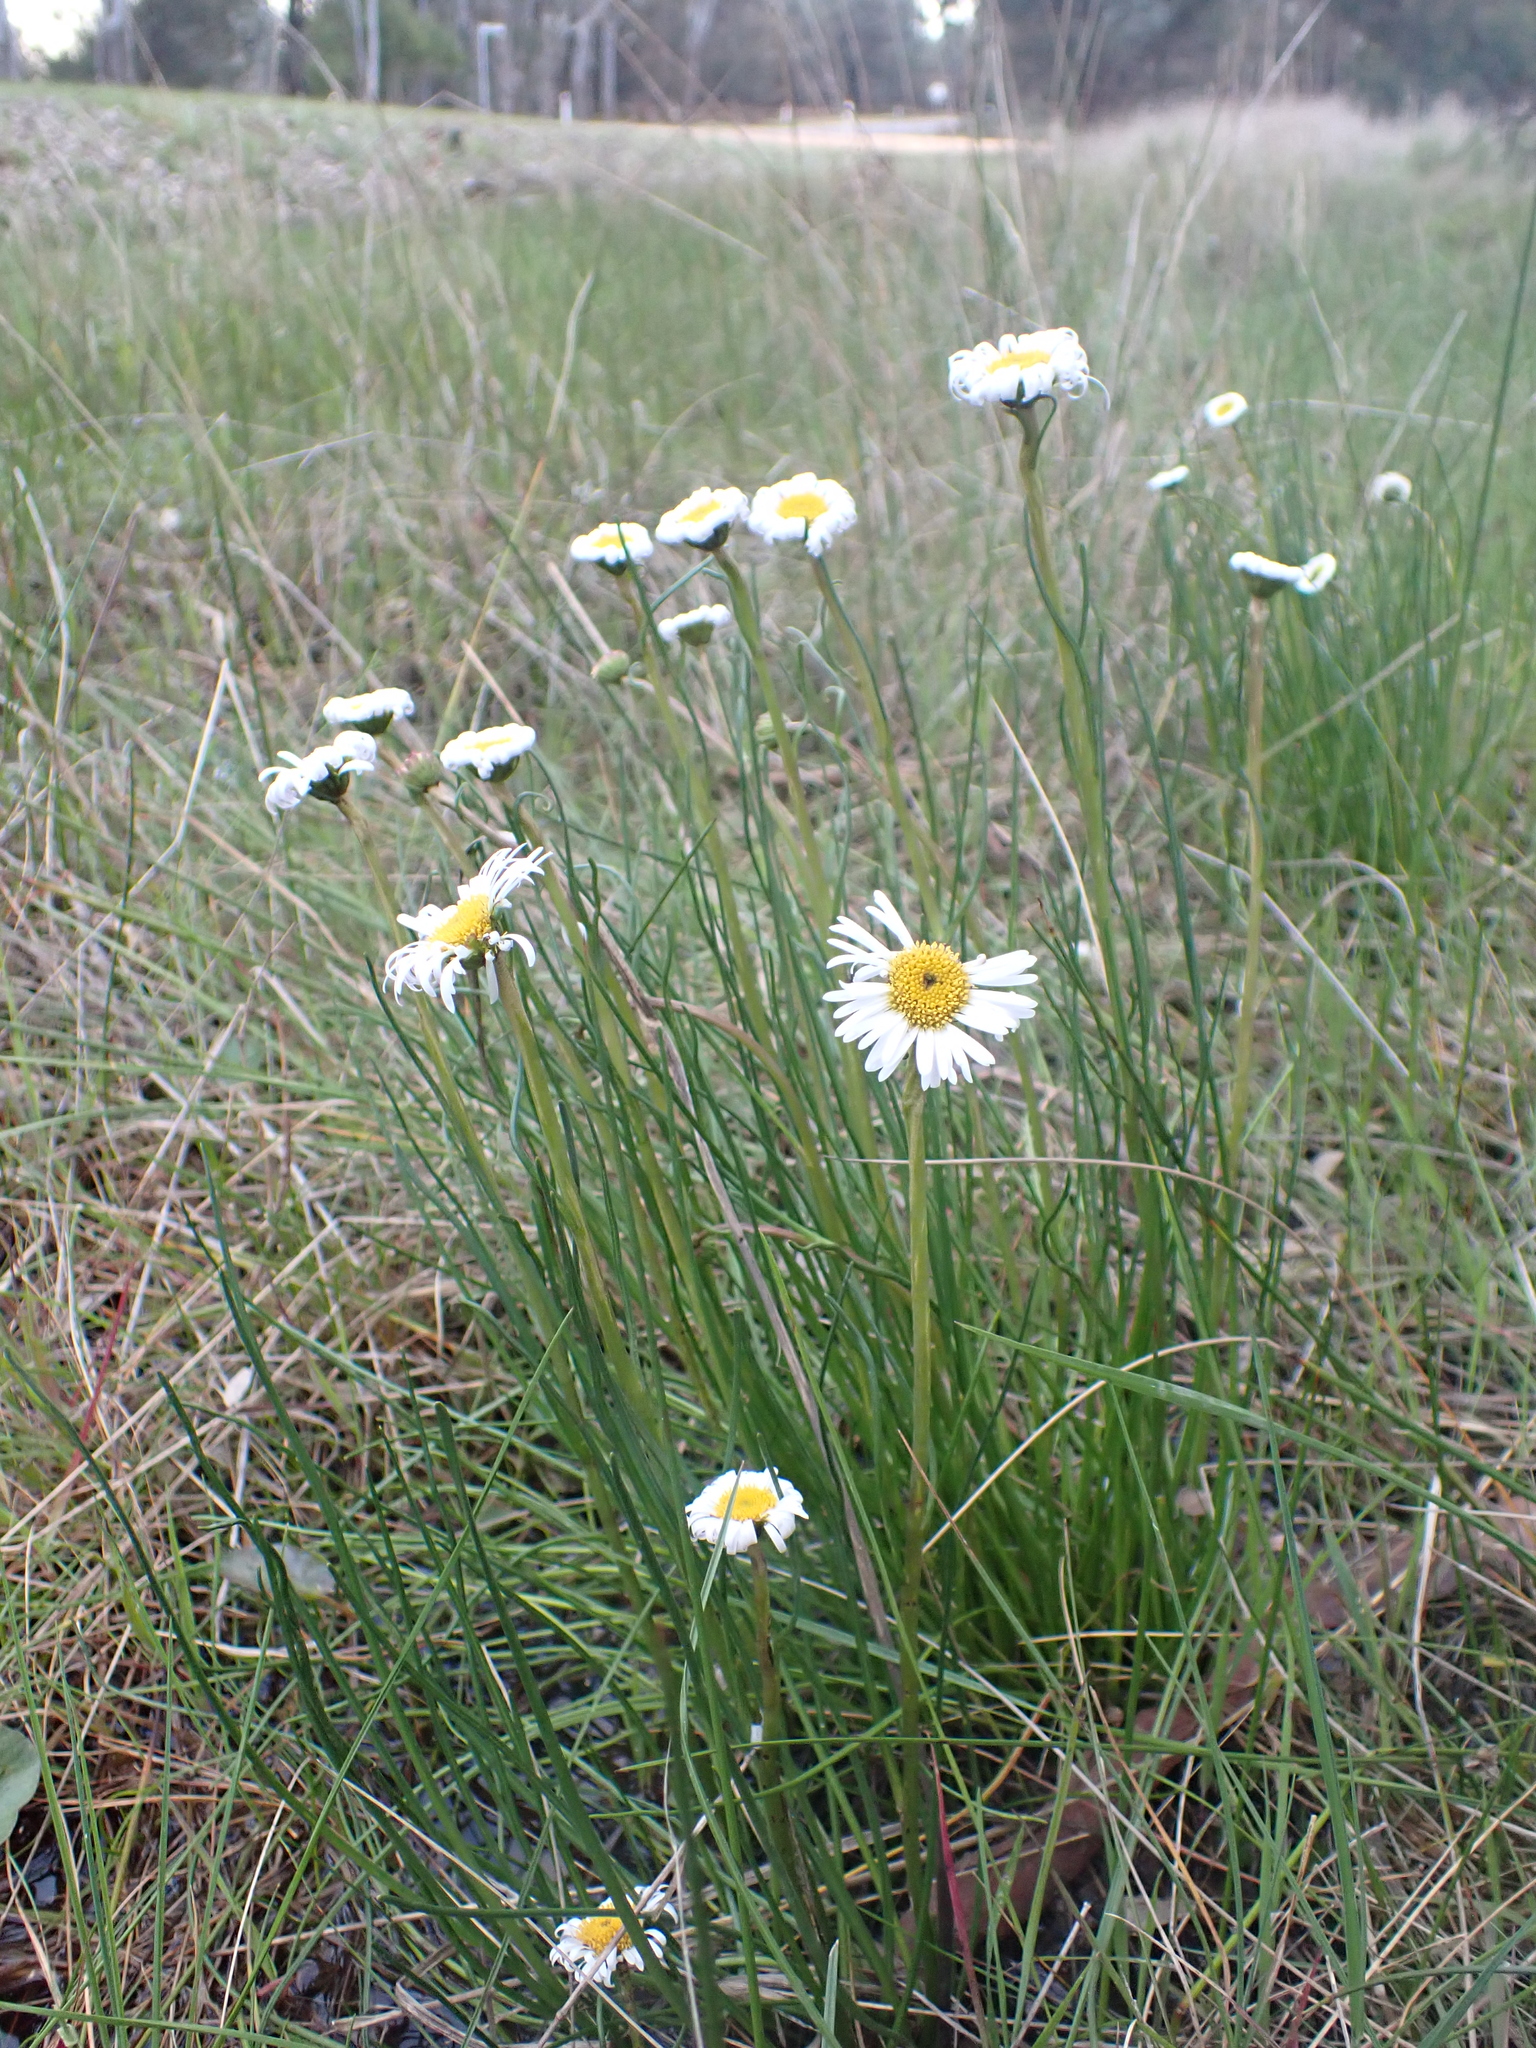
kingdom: Plantae
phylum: Tracheophyta
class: Magnoliopsida
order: Asterales
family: Asteraceae
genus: Allittia
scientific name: Allittia cardiocarpa
